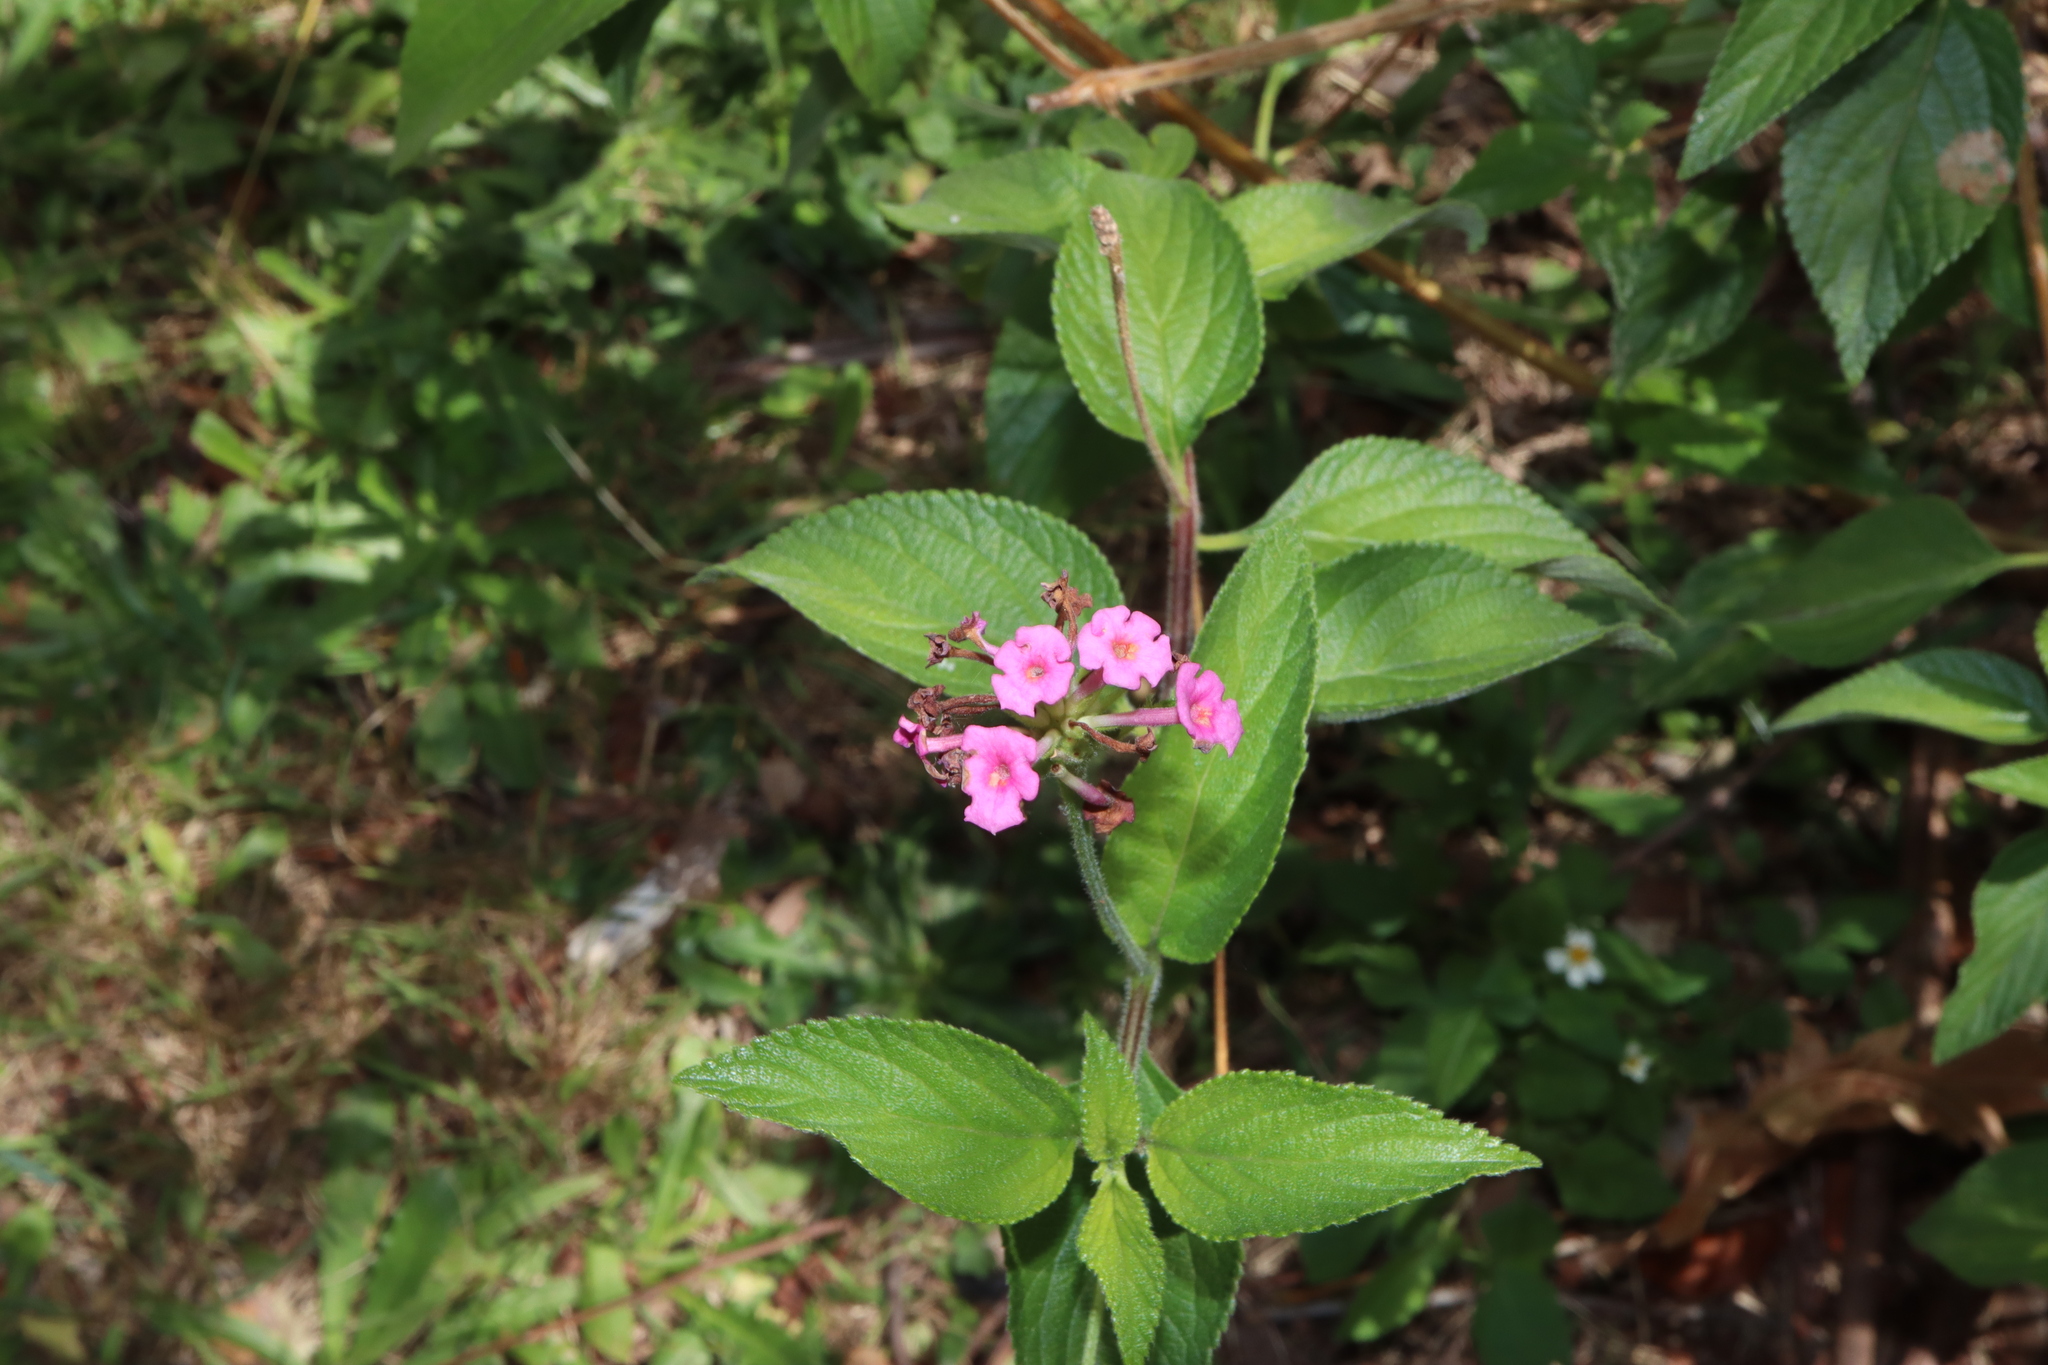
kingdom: Plantae
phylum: Tracheophyta
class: Magnoliopsida
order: Lamiales
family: Verbenaceae
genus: Lantana
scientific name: Lantana camara
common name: Lantana
